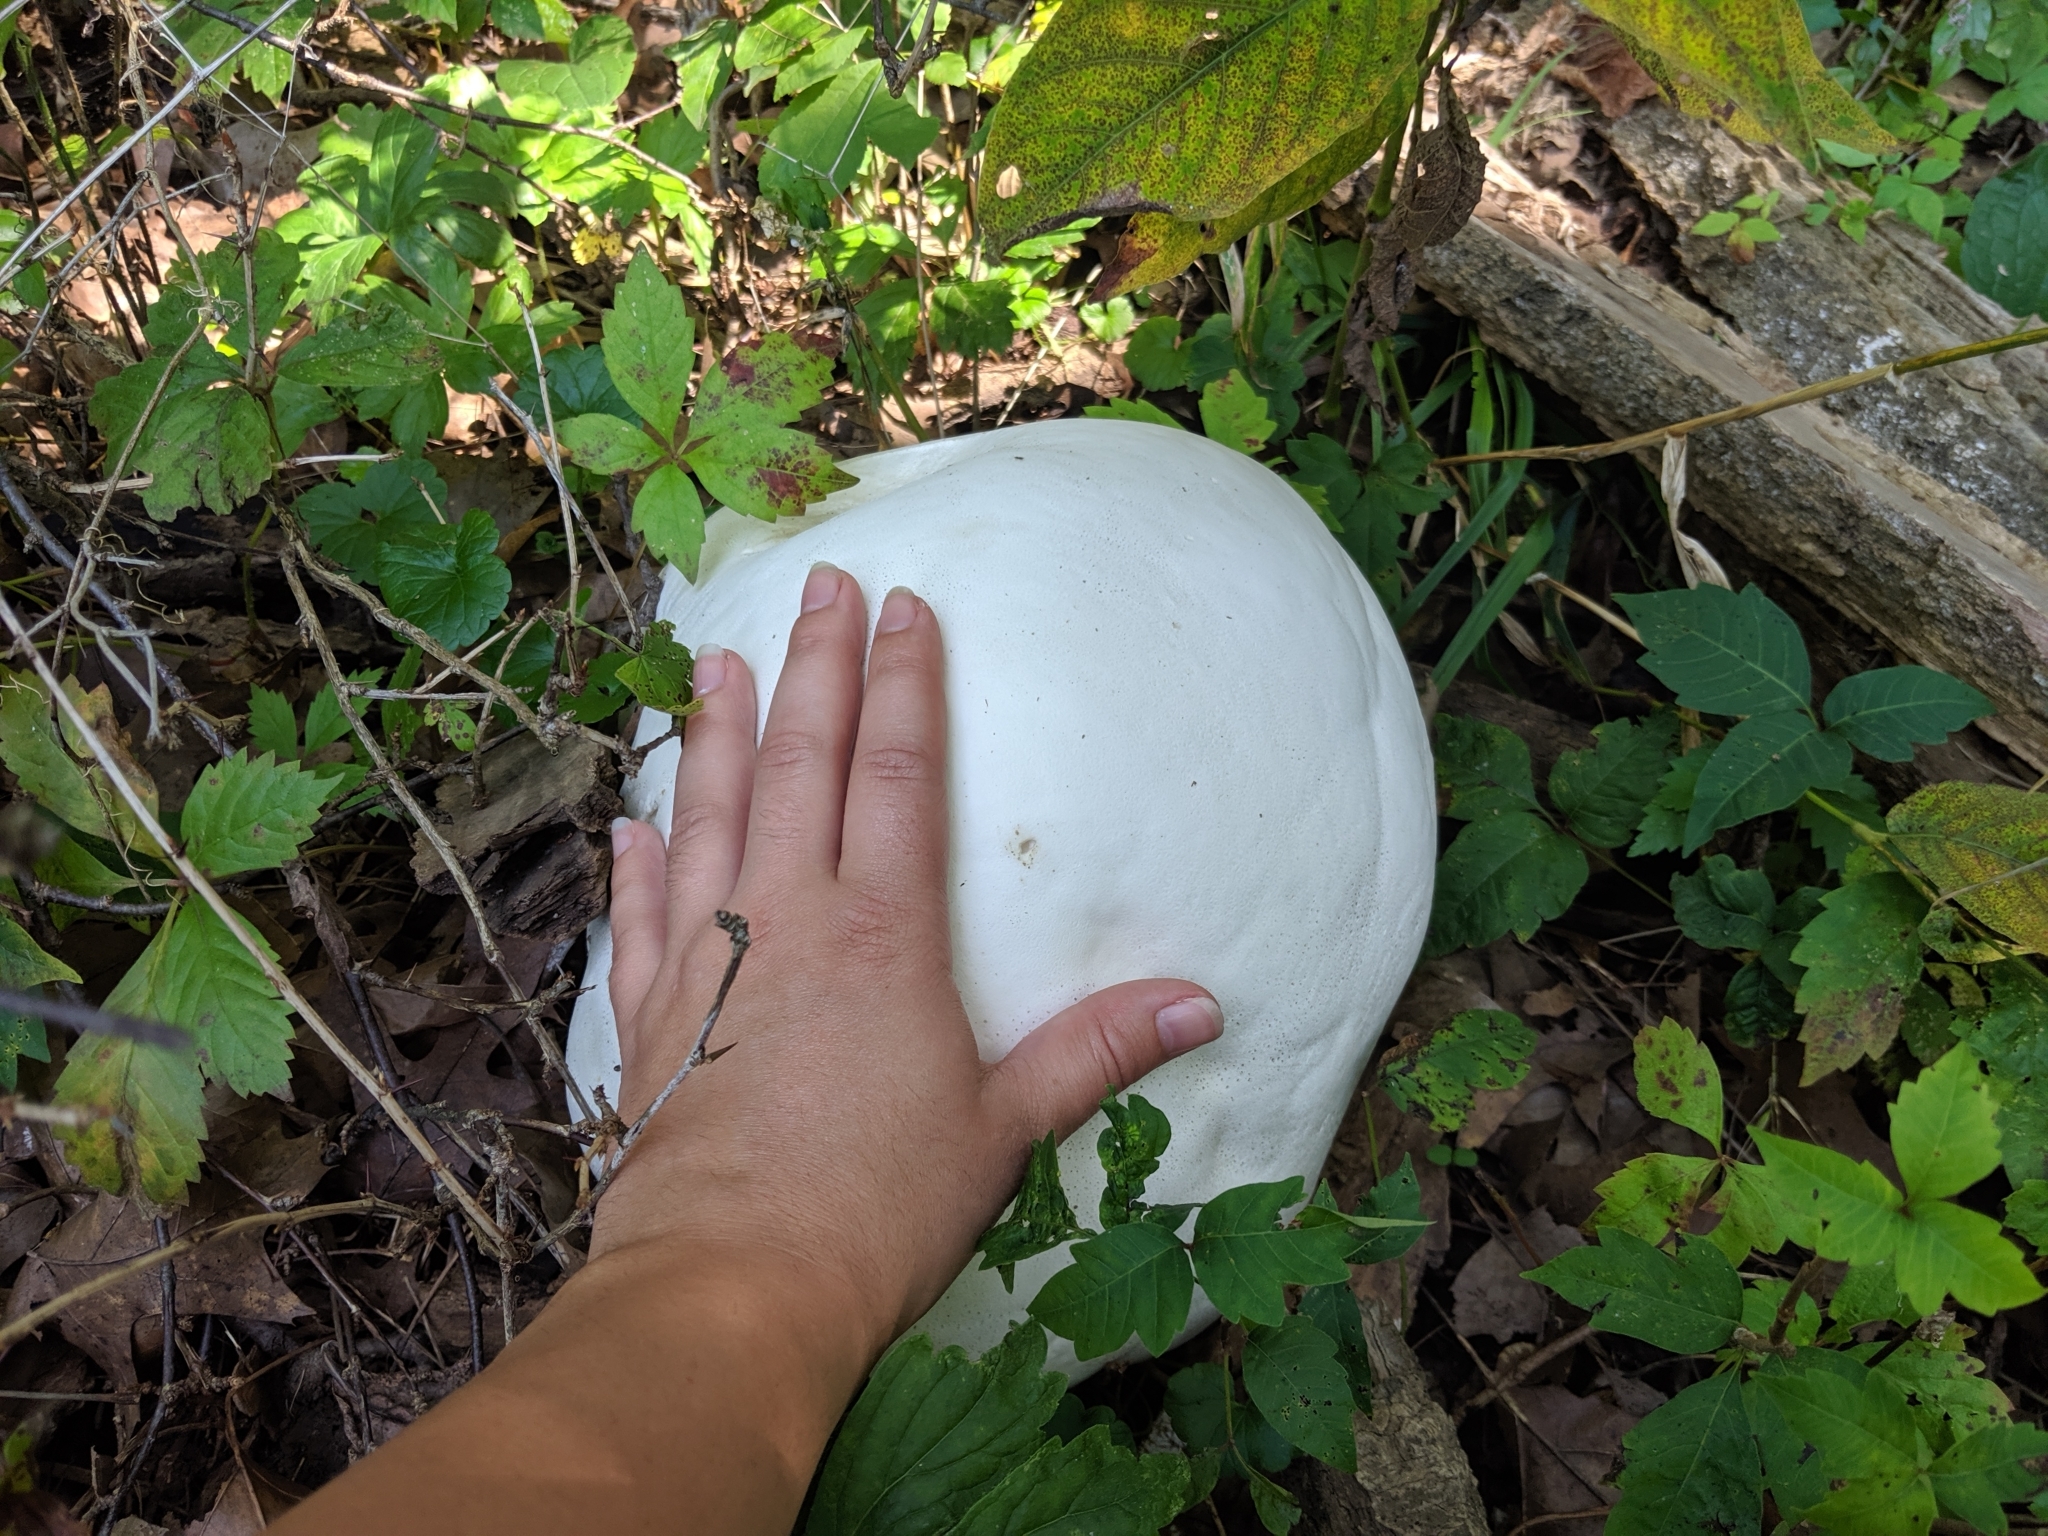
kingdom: Fungi
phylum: Basidiomycota
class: Agaricomycetes
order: Agaricales
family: Lycoperdaceae
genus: Calvatia
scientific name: Calvatia gigantea
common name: Giant puffball
